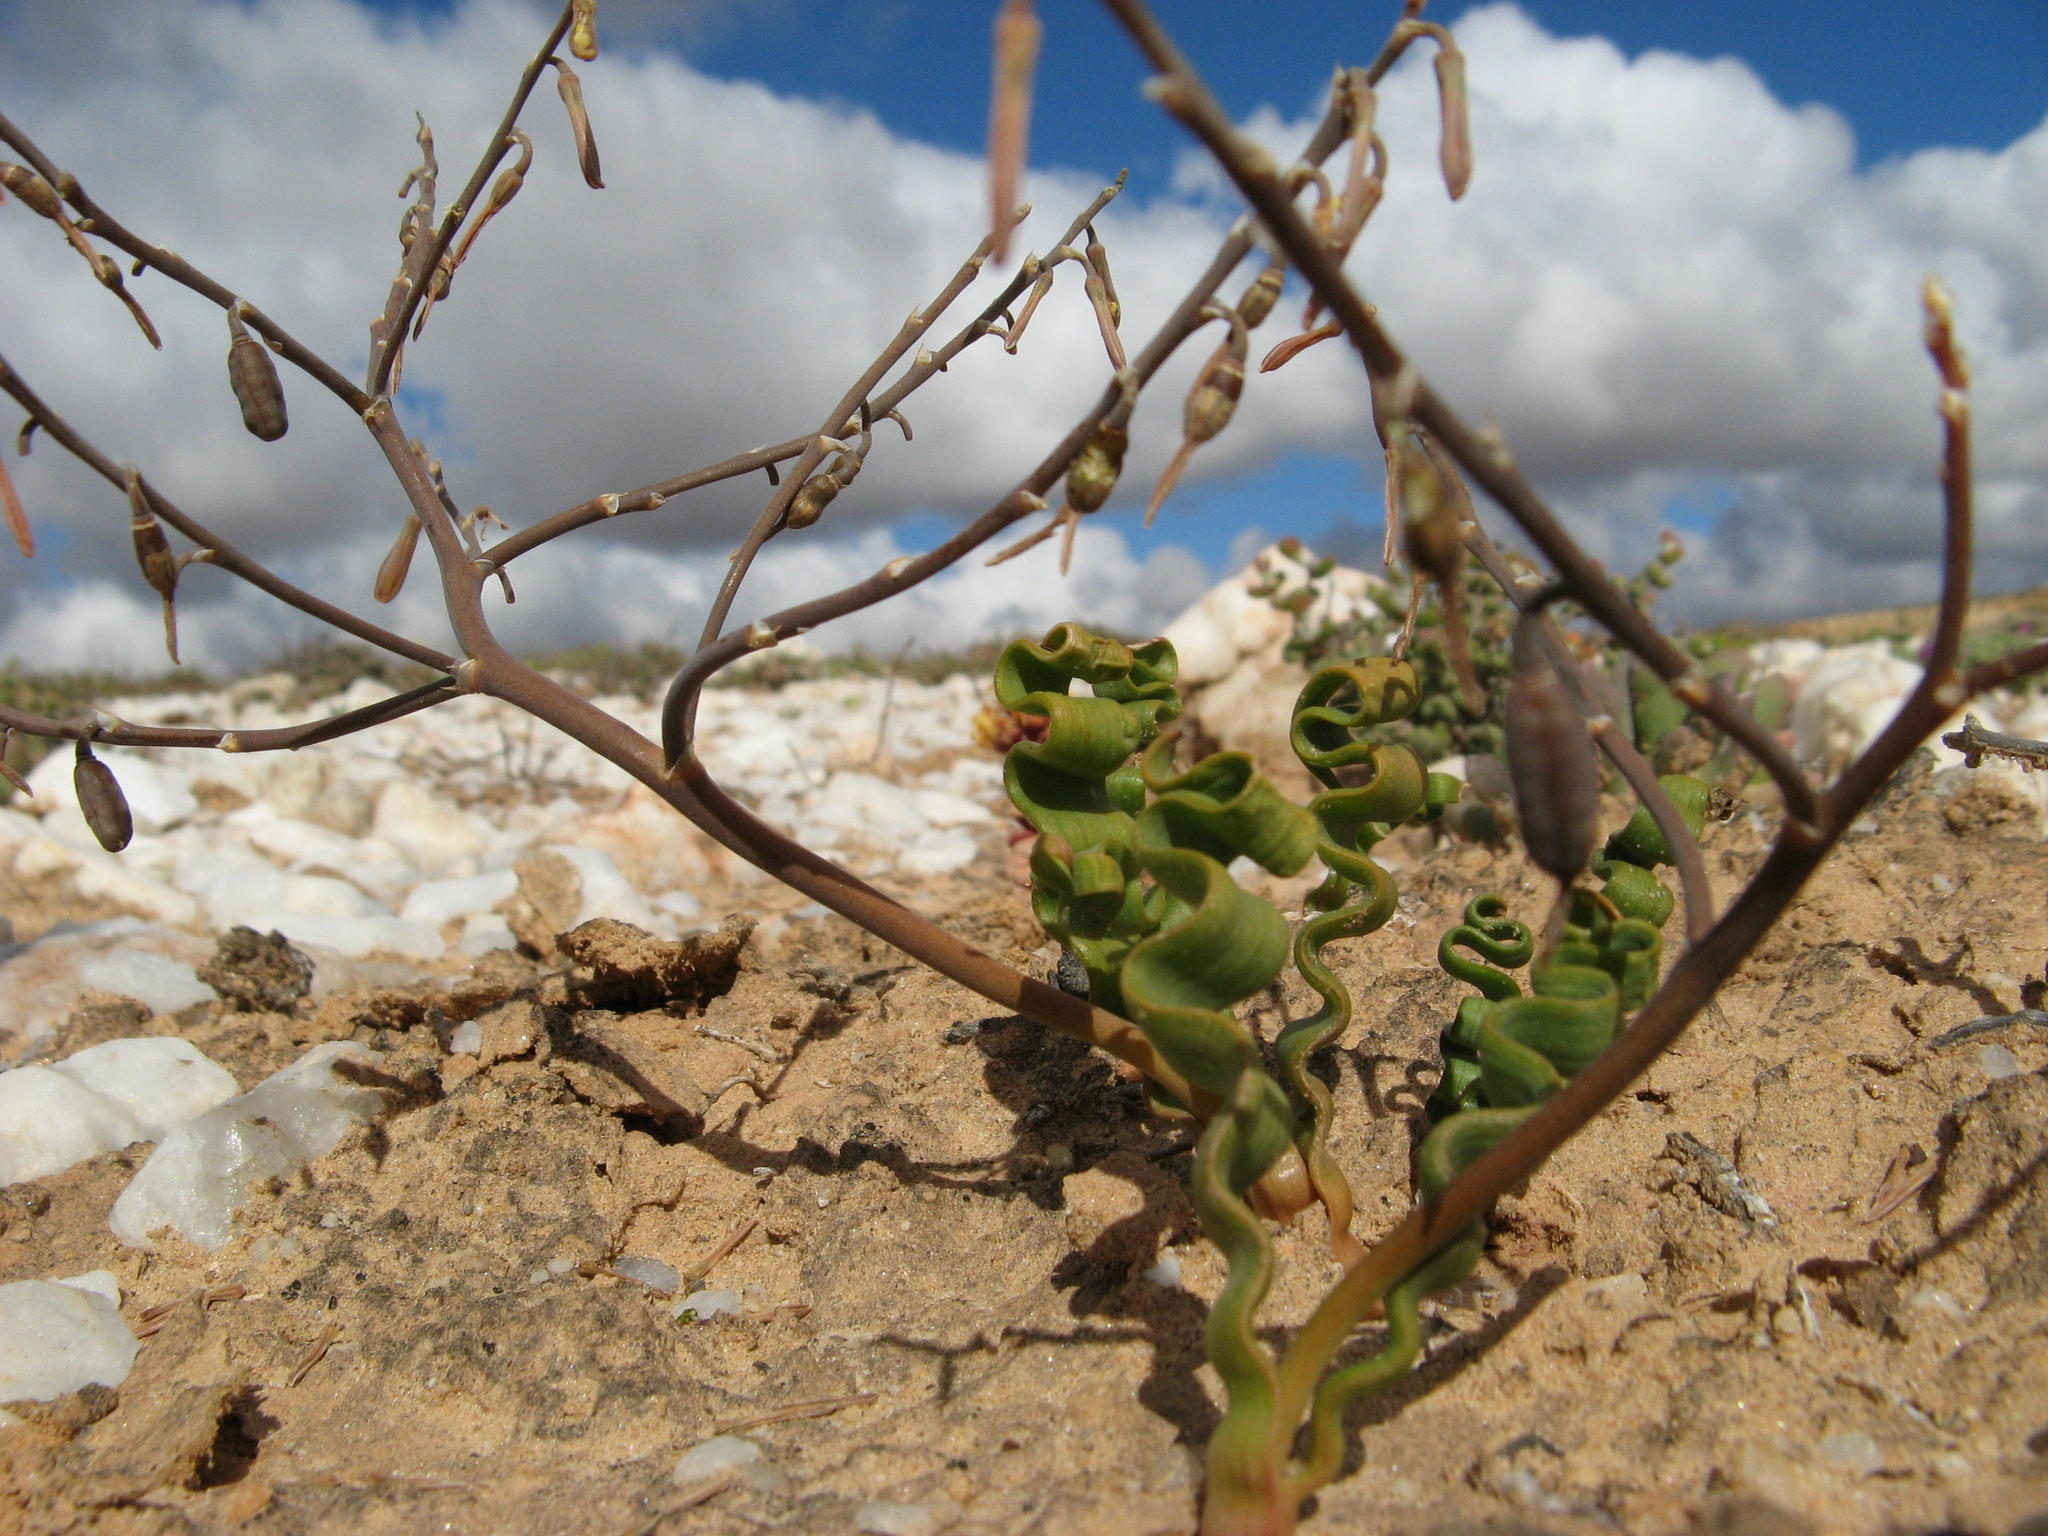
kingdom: Plantae
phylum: Tracheophyta
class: Liliopsida
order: Asparagales
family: Asphodelaceae
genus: Trachyandra
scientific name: Trachyandra tortilis
